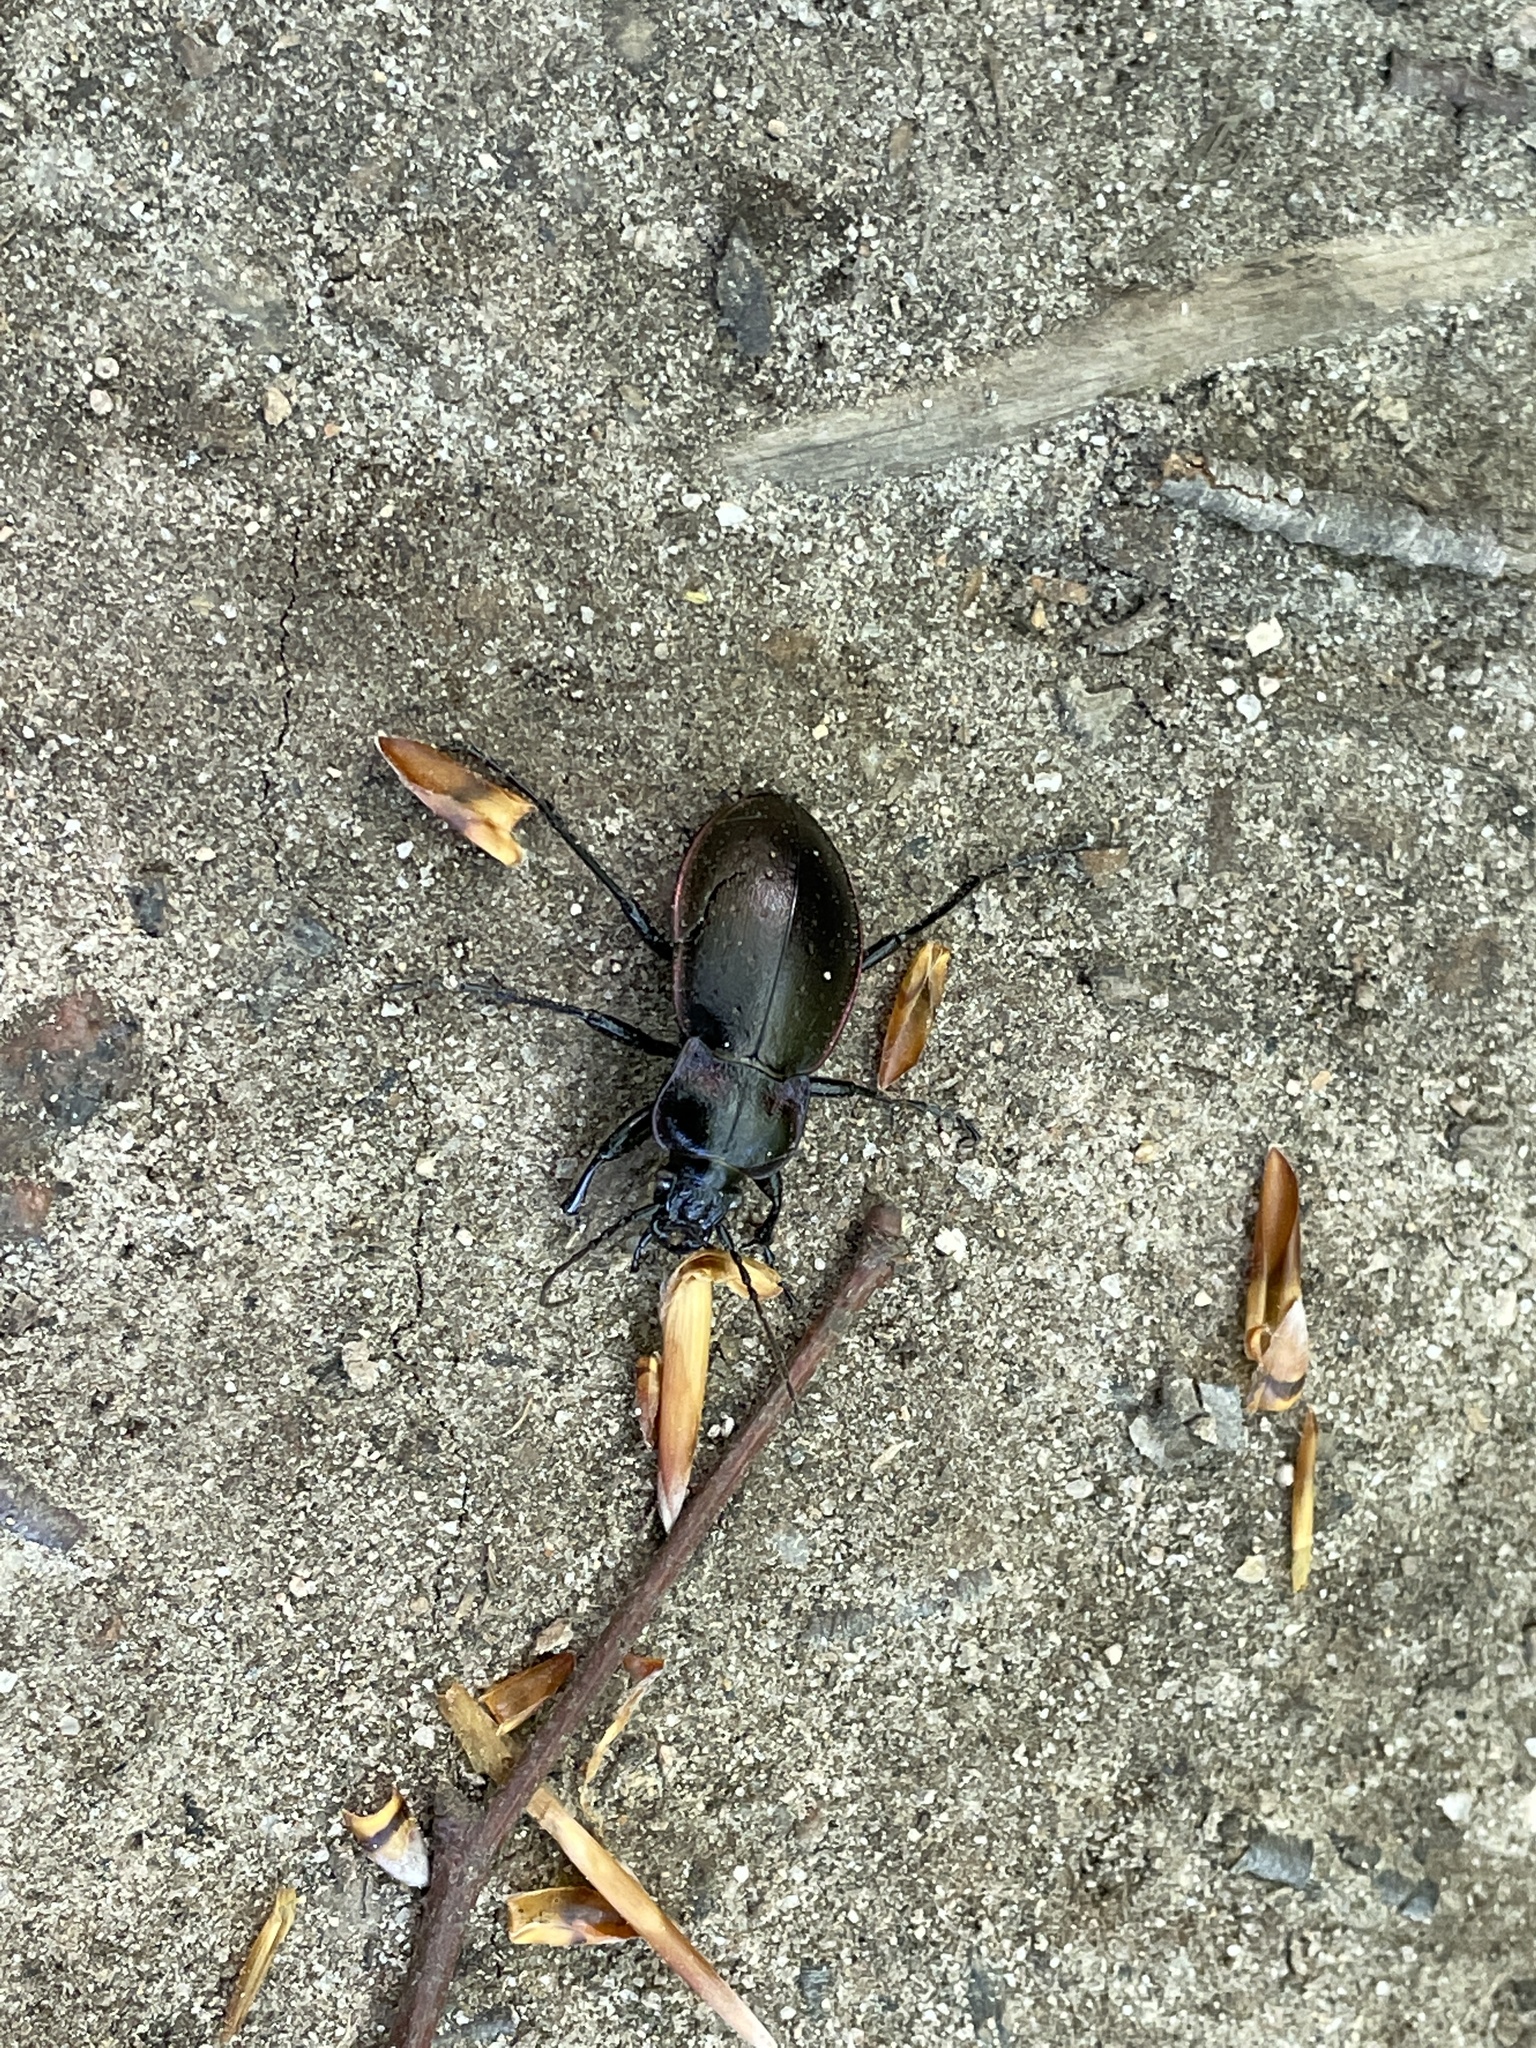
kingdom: Animalia
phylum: Arthropoda
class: Insecta
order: Coleoptera
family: Carabidae
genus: Carabus
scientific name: Carabus nemoralis
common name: European ground beetle
